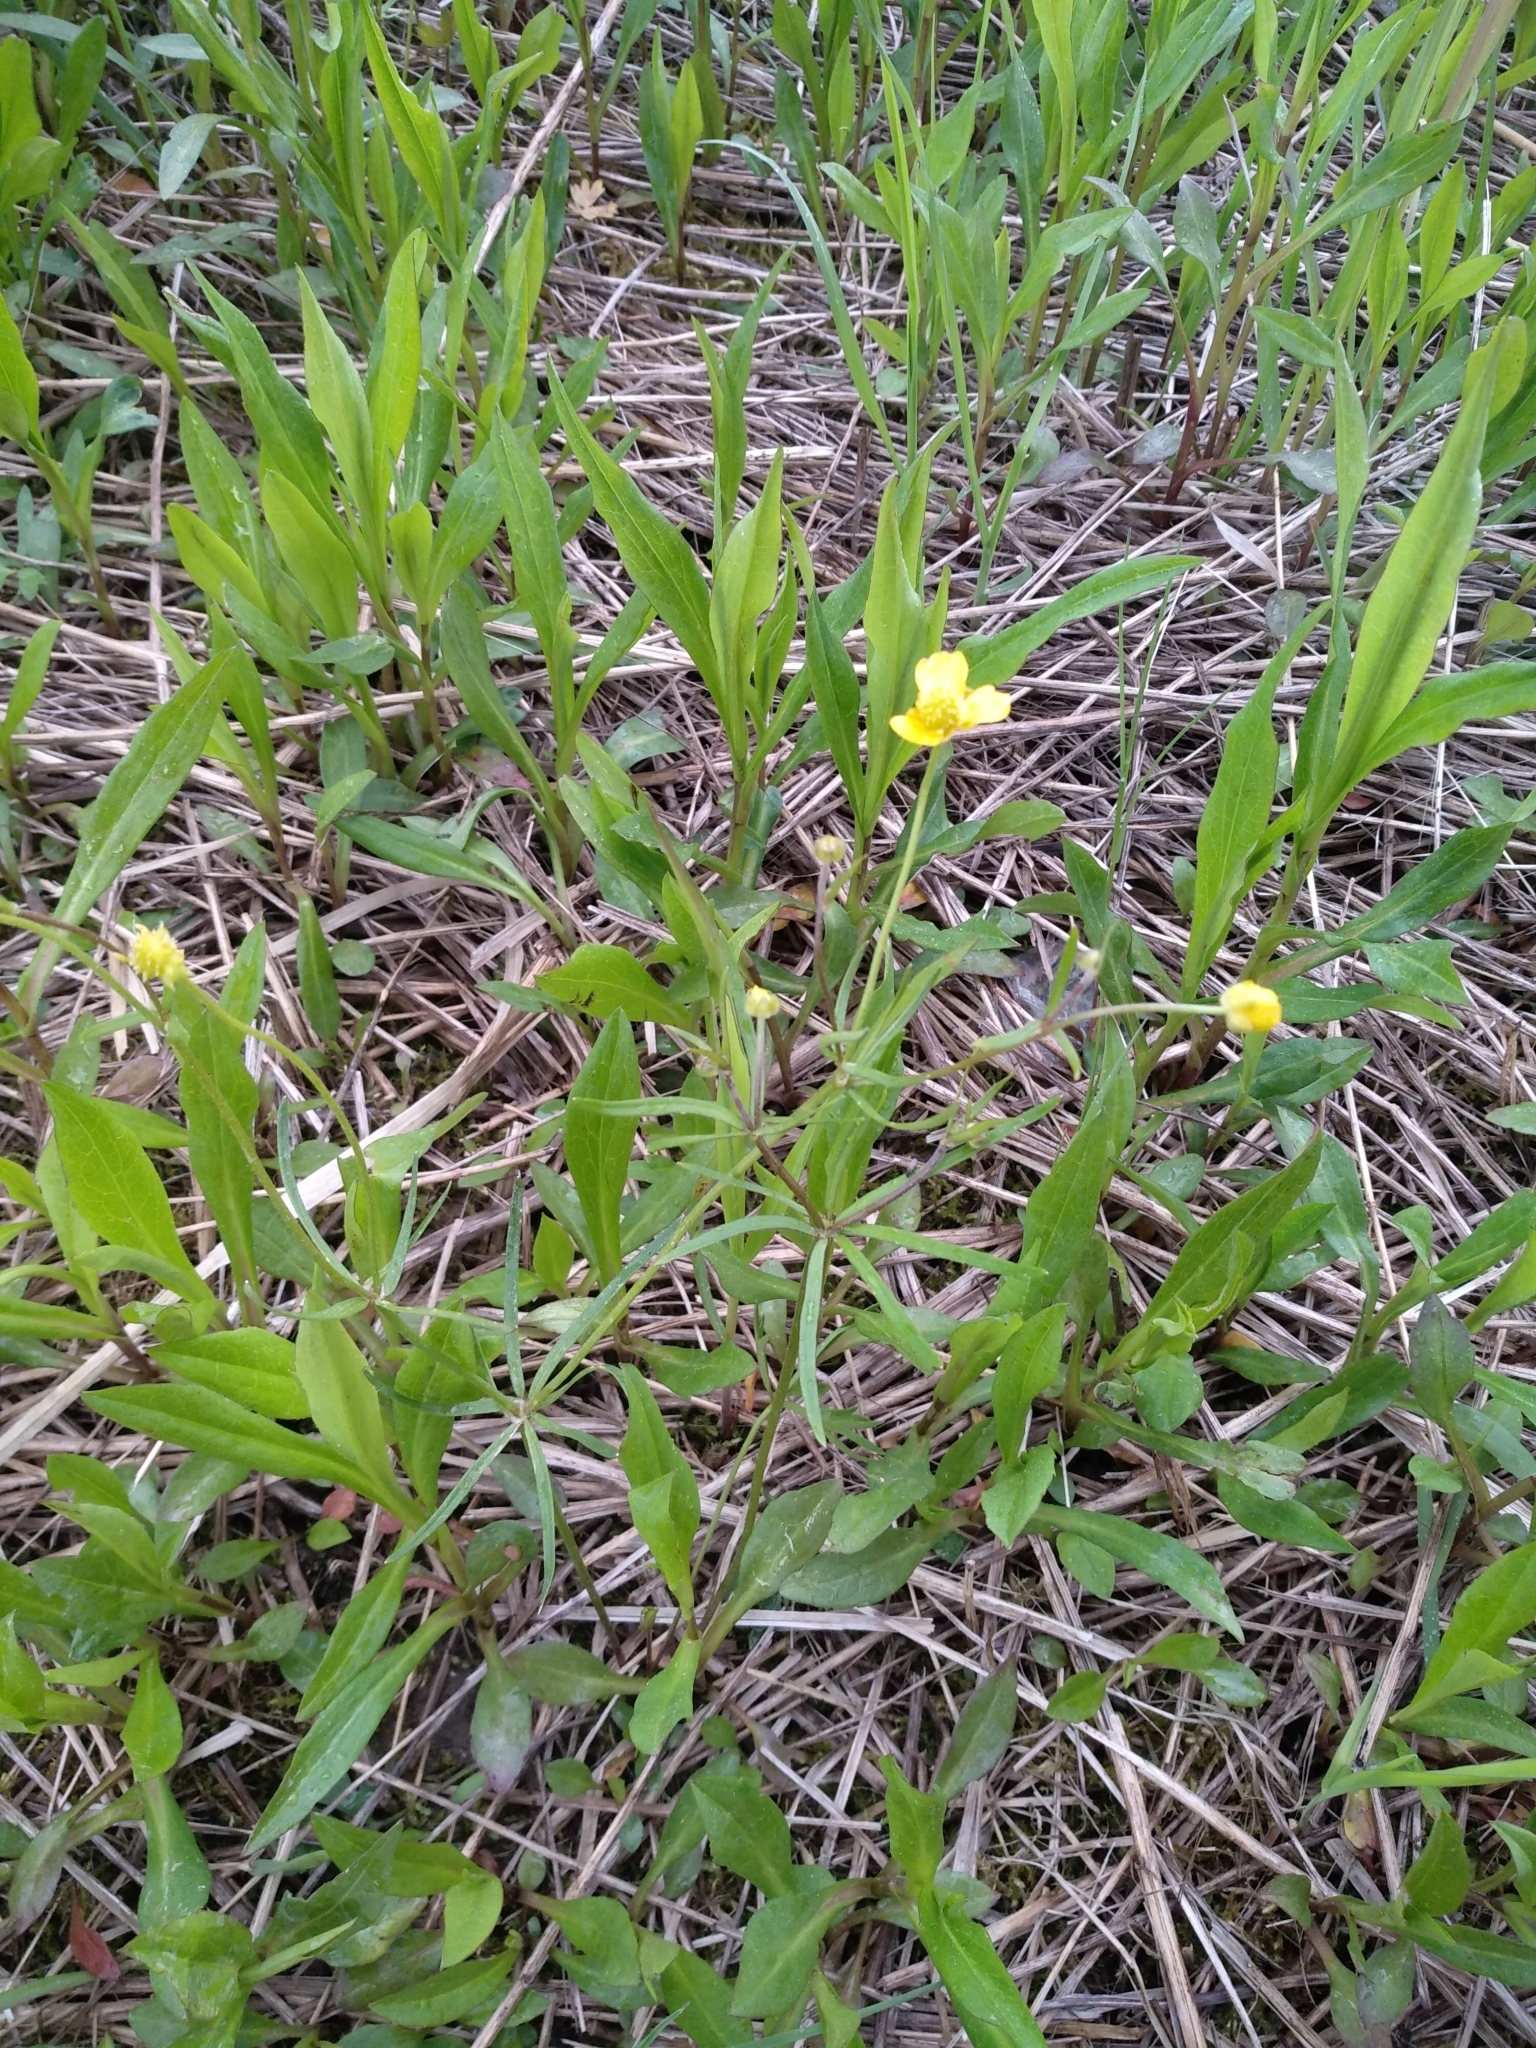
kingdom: Plantae
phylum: Tracheophyta
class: Magnoliopsida
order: Ranunculales
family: Ranunculaceae
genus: Ranunculus
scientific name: Ranunculus auricomus
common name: Goldilocks buttercup
